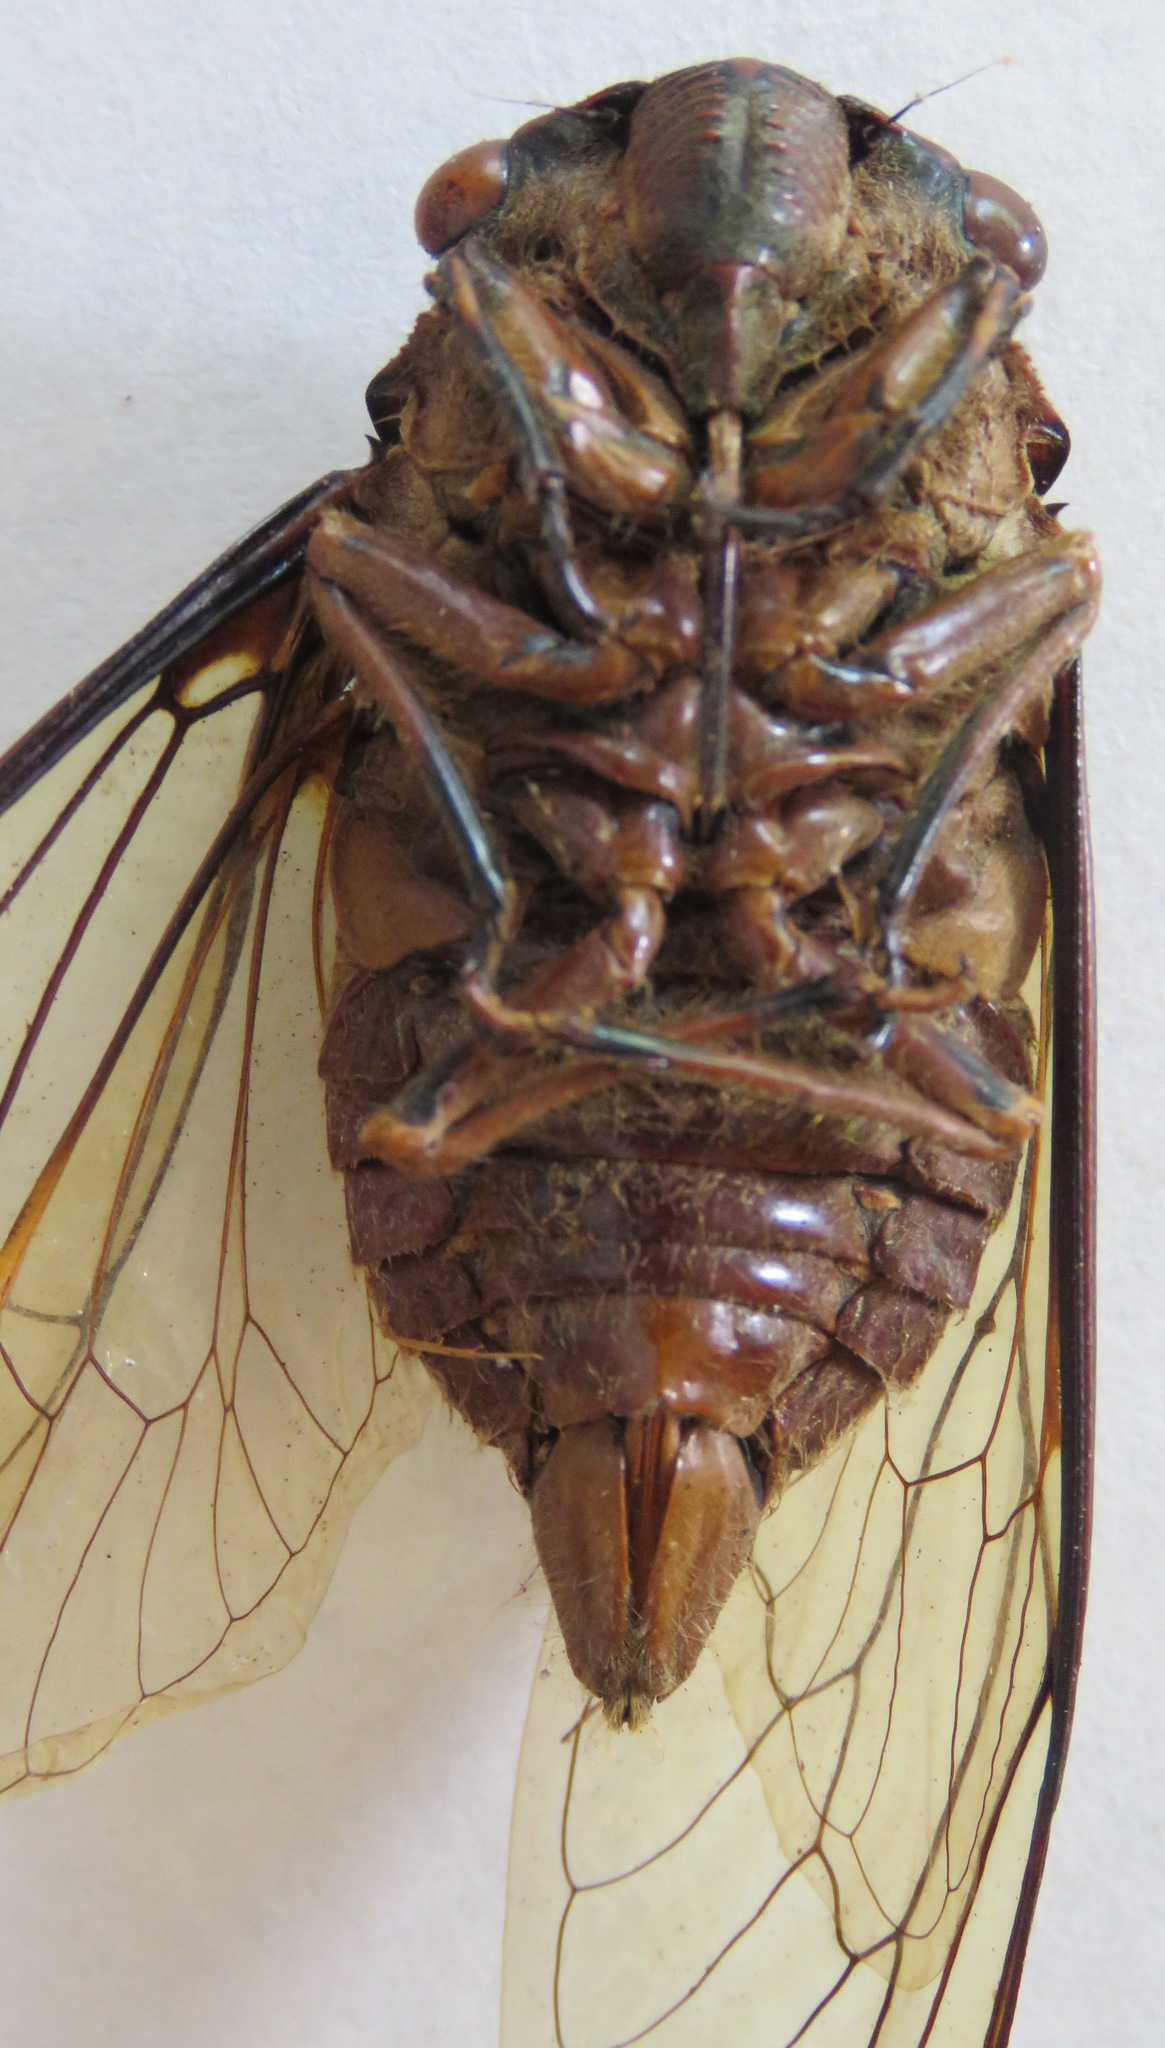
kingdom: Animalia
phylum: Arthropoda
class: Insecta
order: Hemiptera
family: Cicadidae
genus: Quesada
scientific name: Quesada gigas
